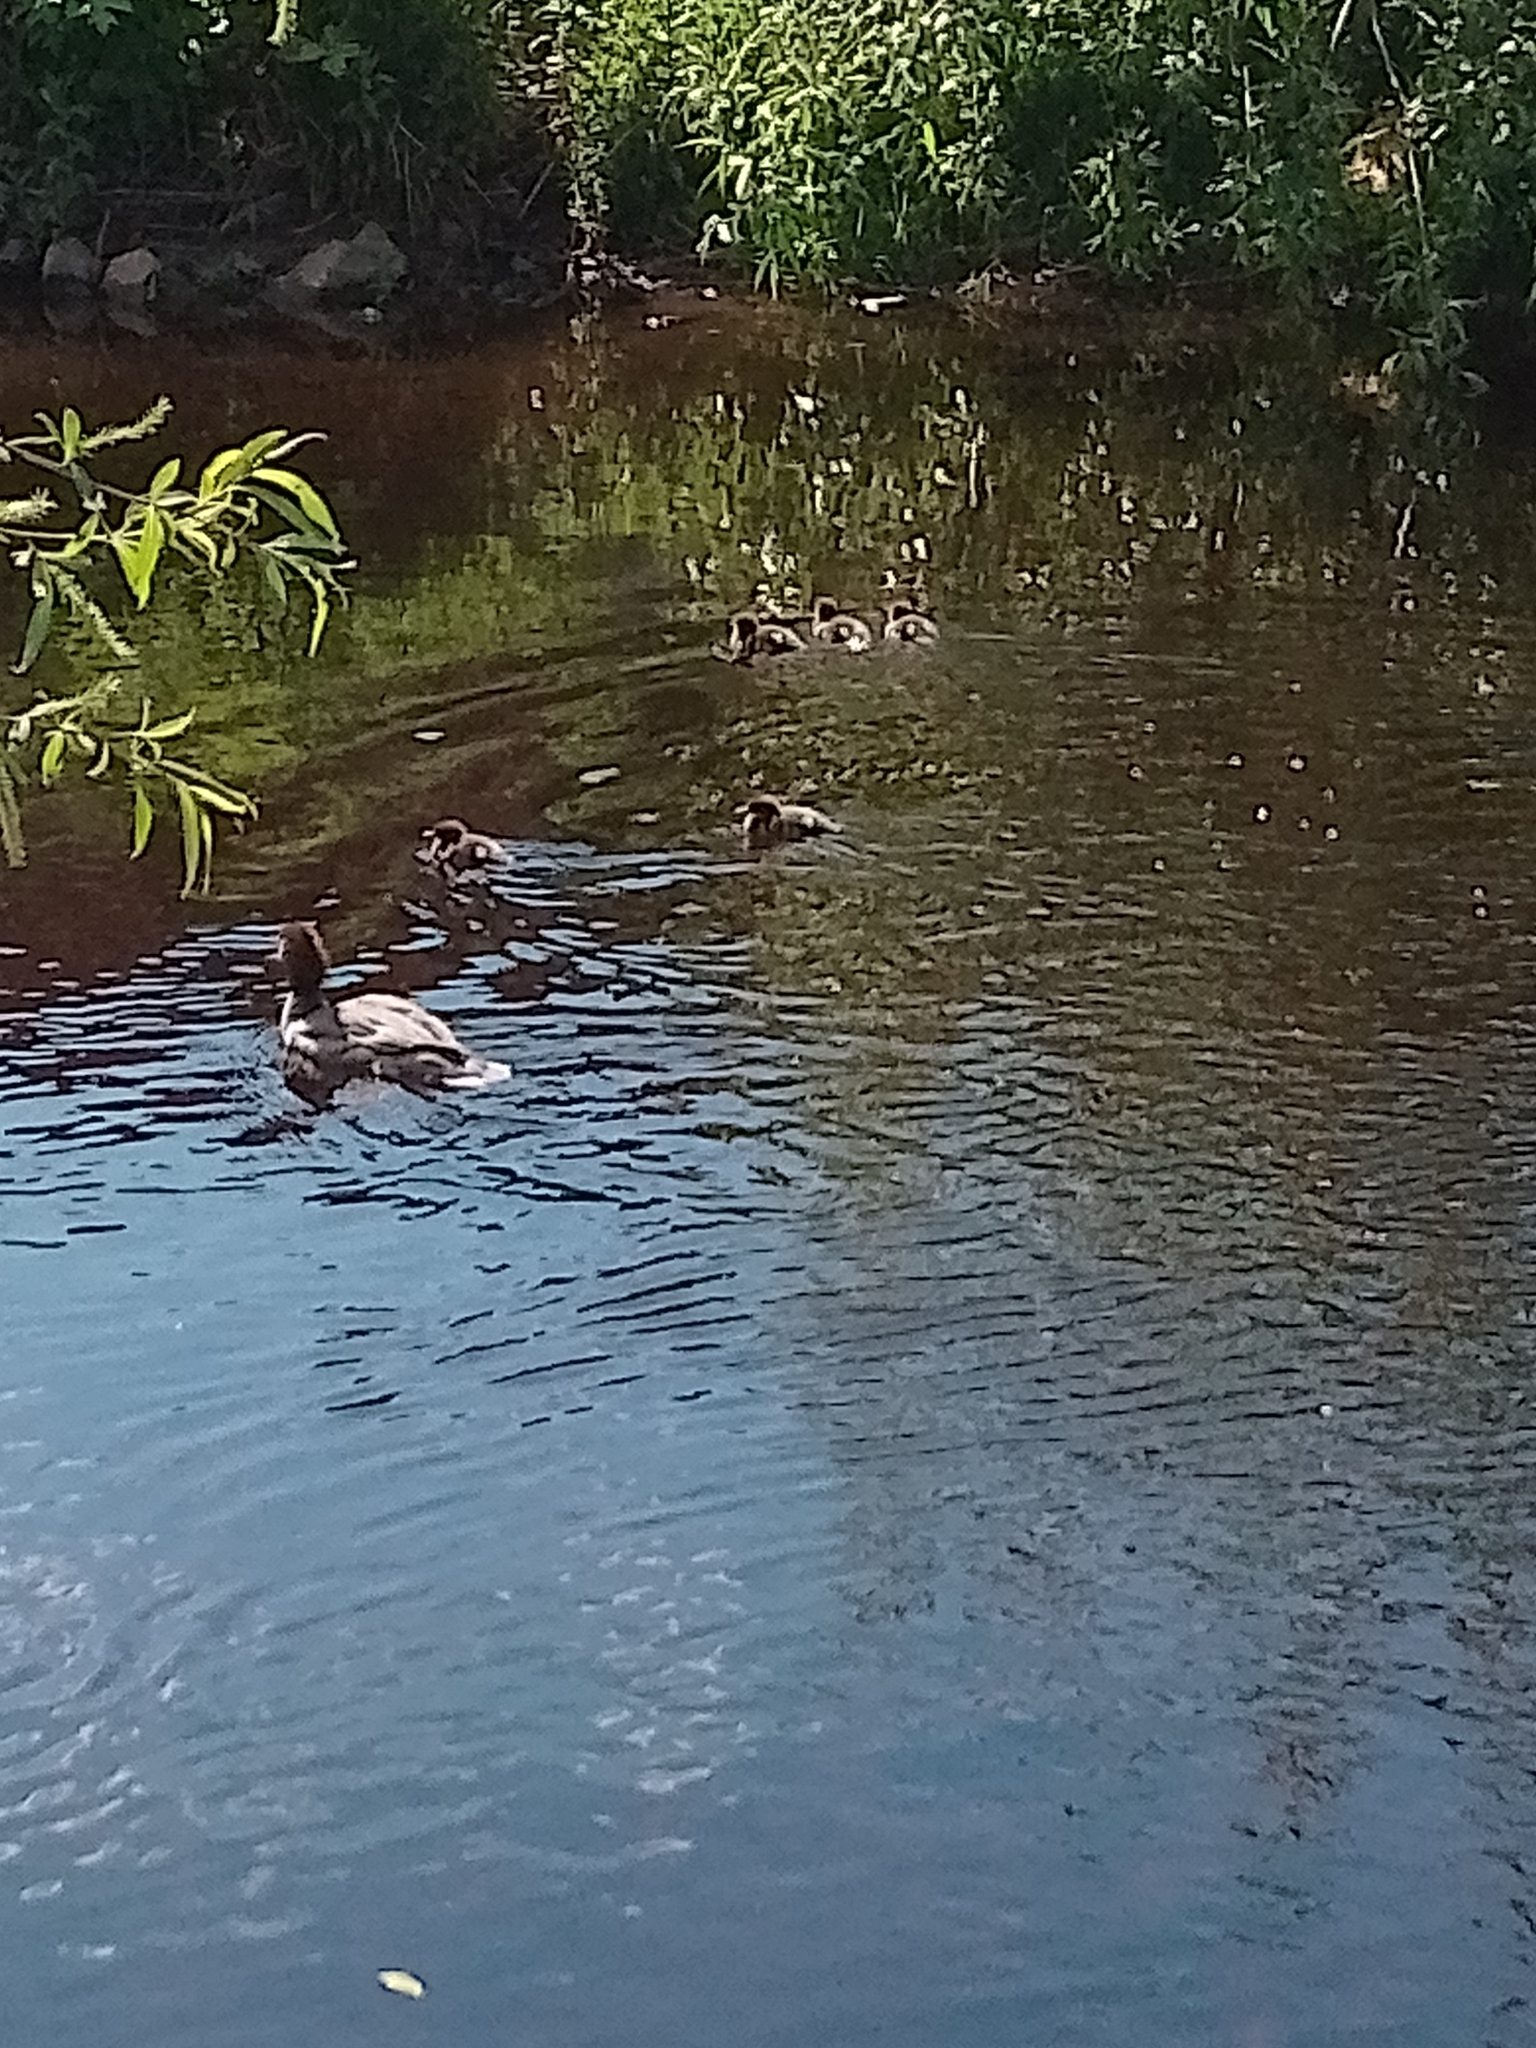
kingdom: Animalia
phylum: Chordata
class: Aves
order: Anseriformes
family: Anatidae
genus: Mergus
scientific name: Mergus merganser
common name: Common merganser
